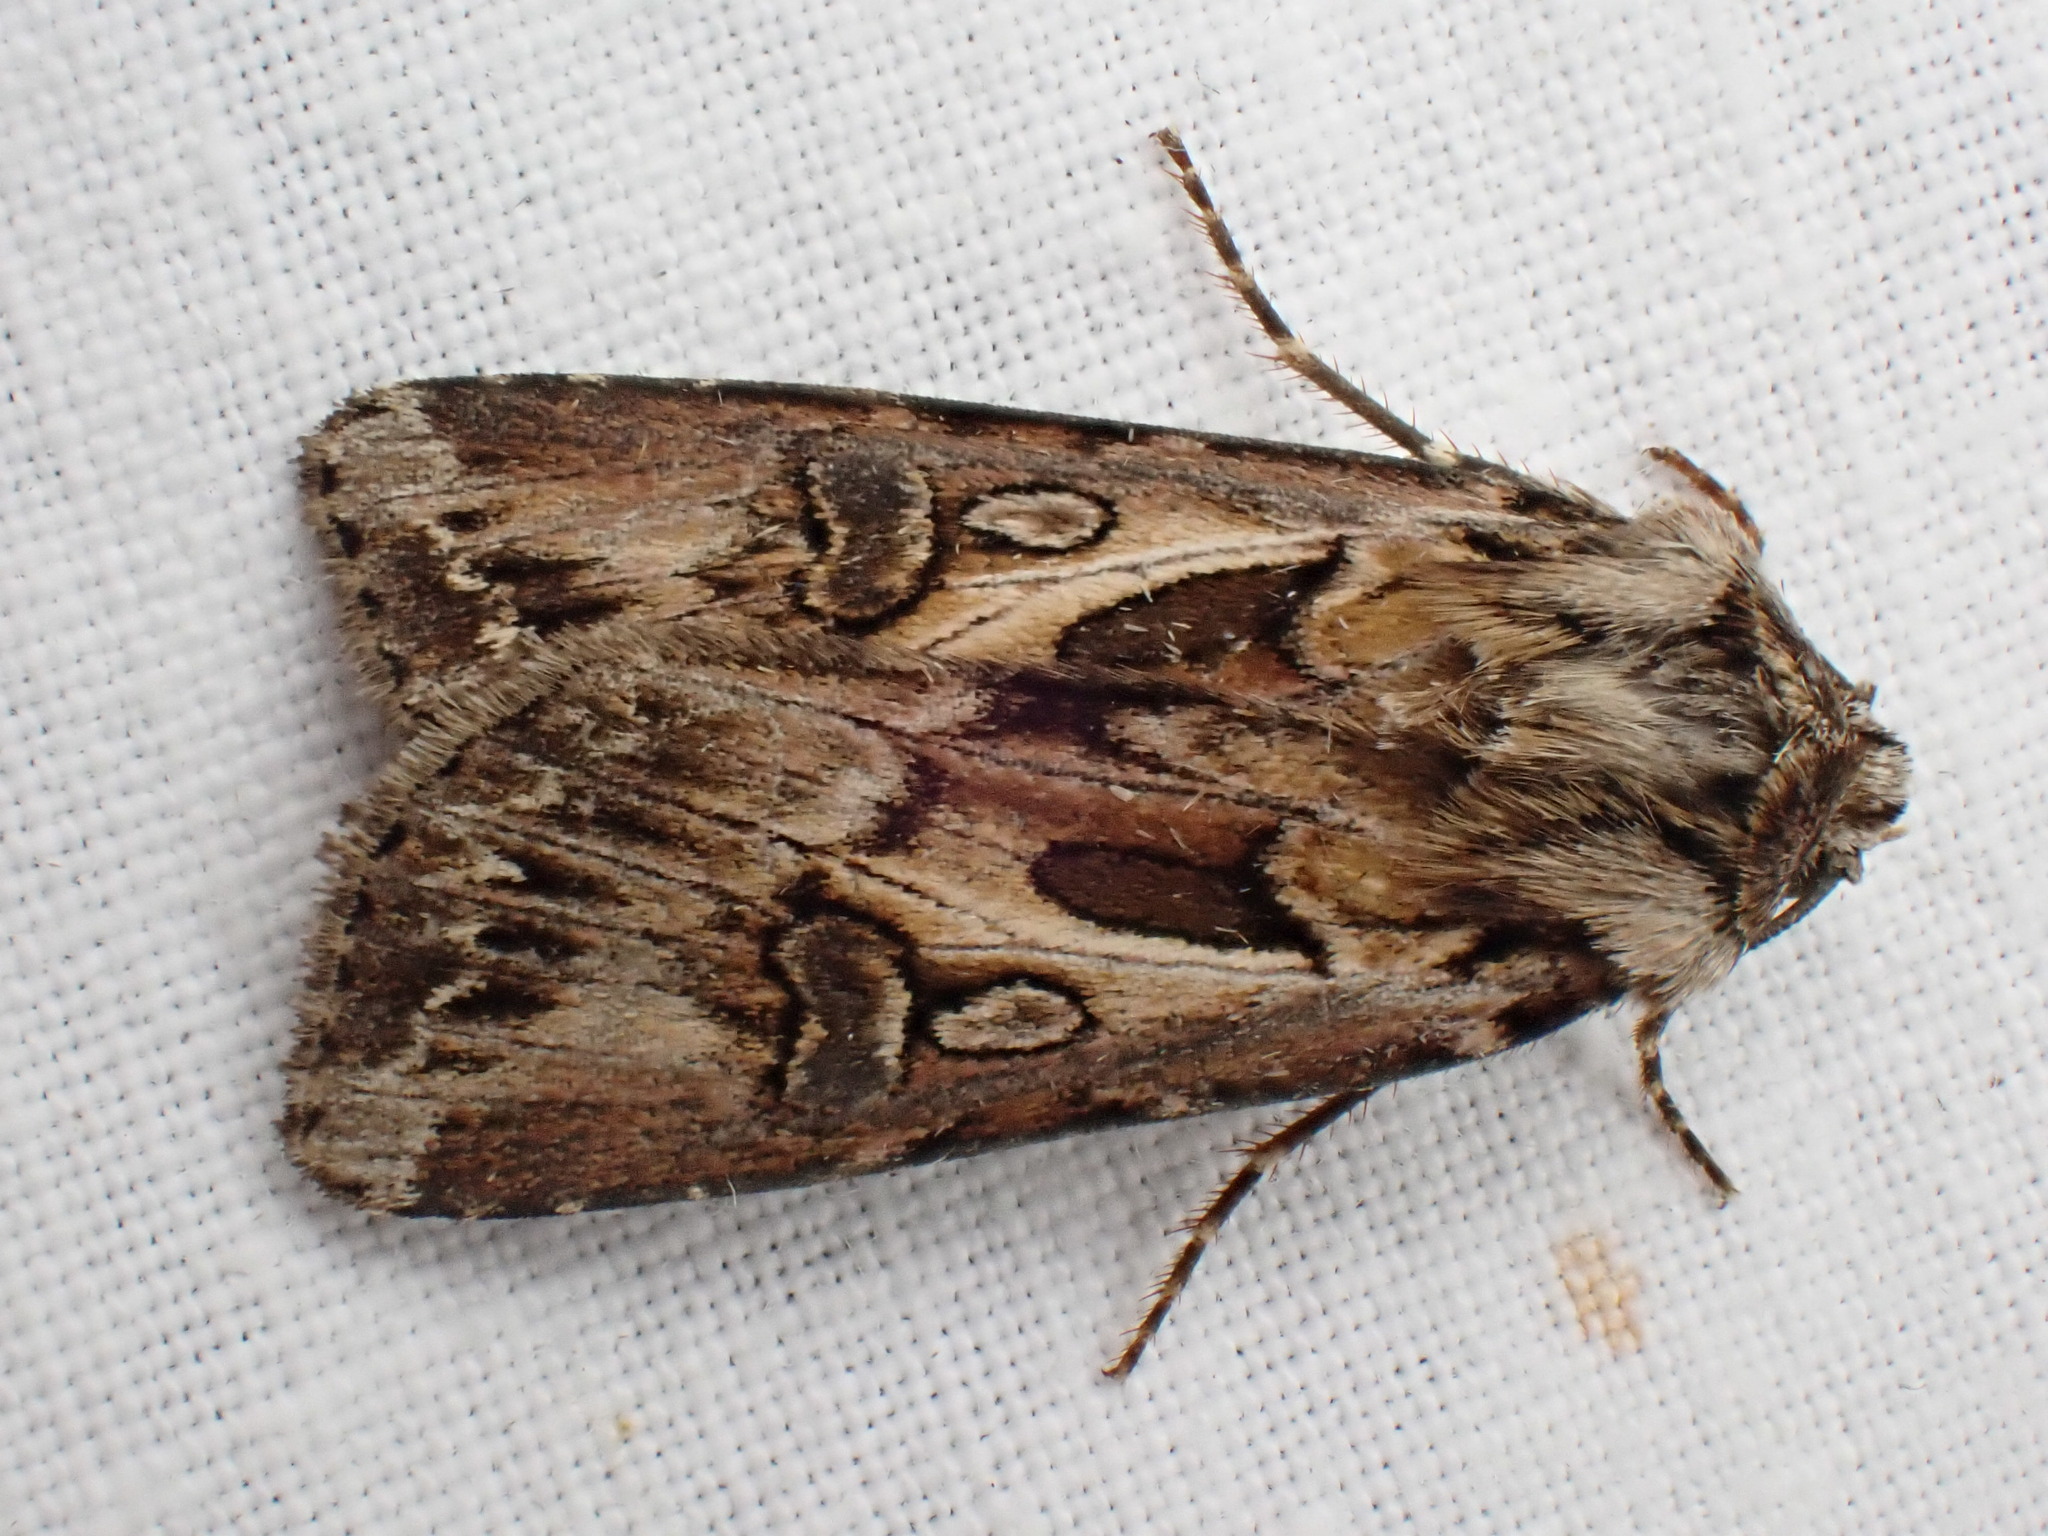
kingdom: Animalia
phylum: Arthropoda
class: Insecta
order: Lepidoptera
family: Noctuidae
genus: Agrotis
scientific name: Agrotis vestigialis
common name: Archer's dart
